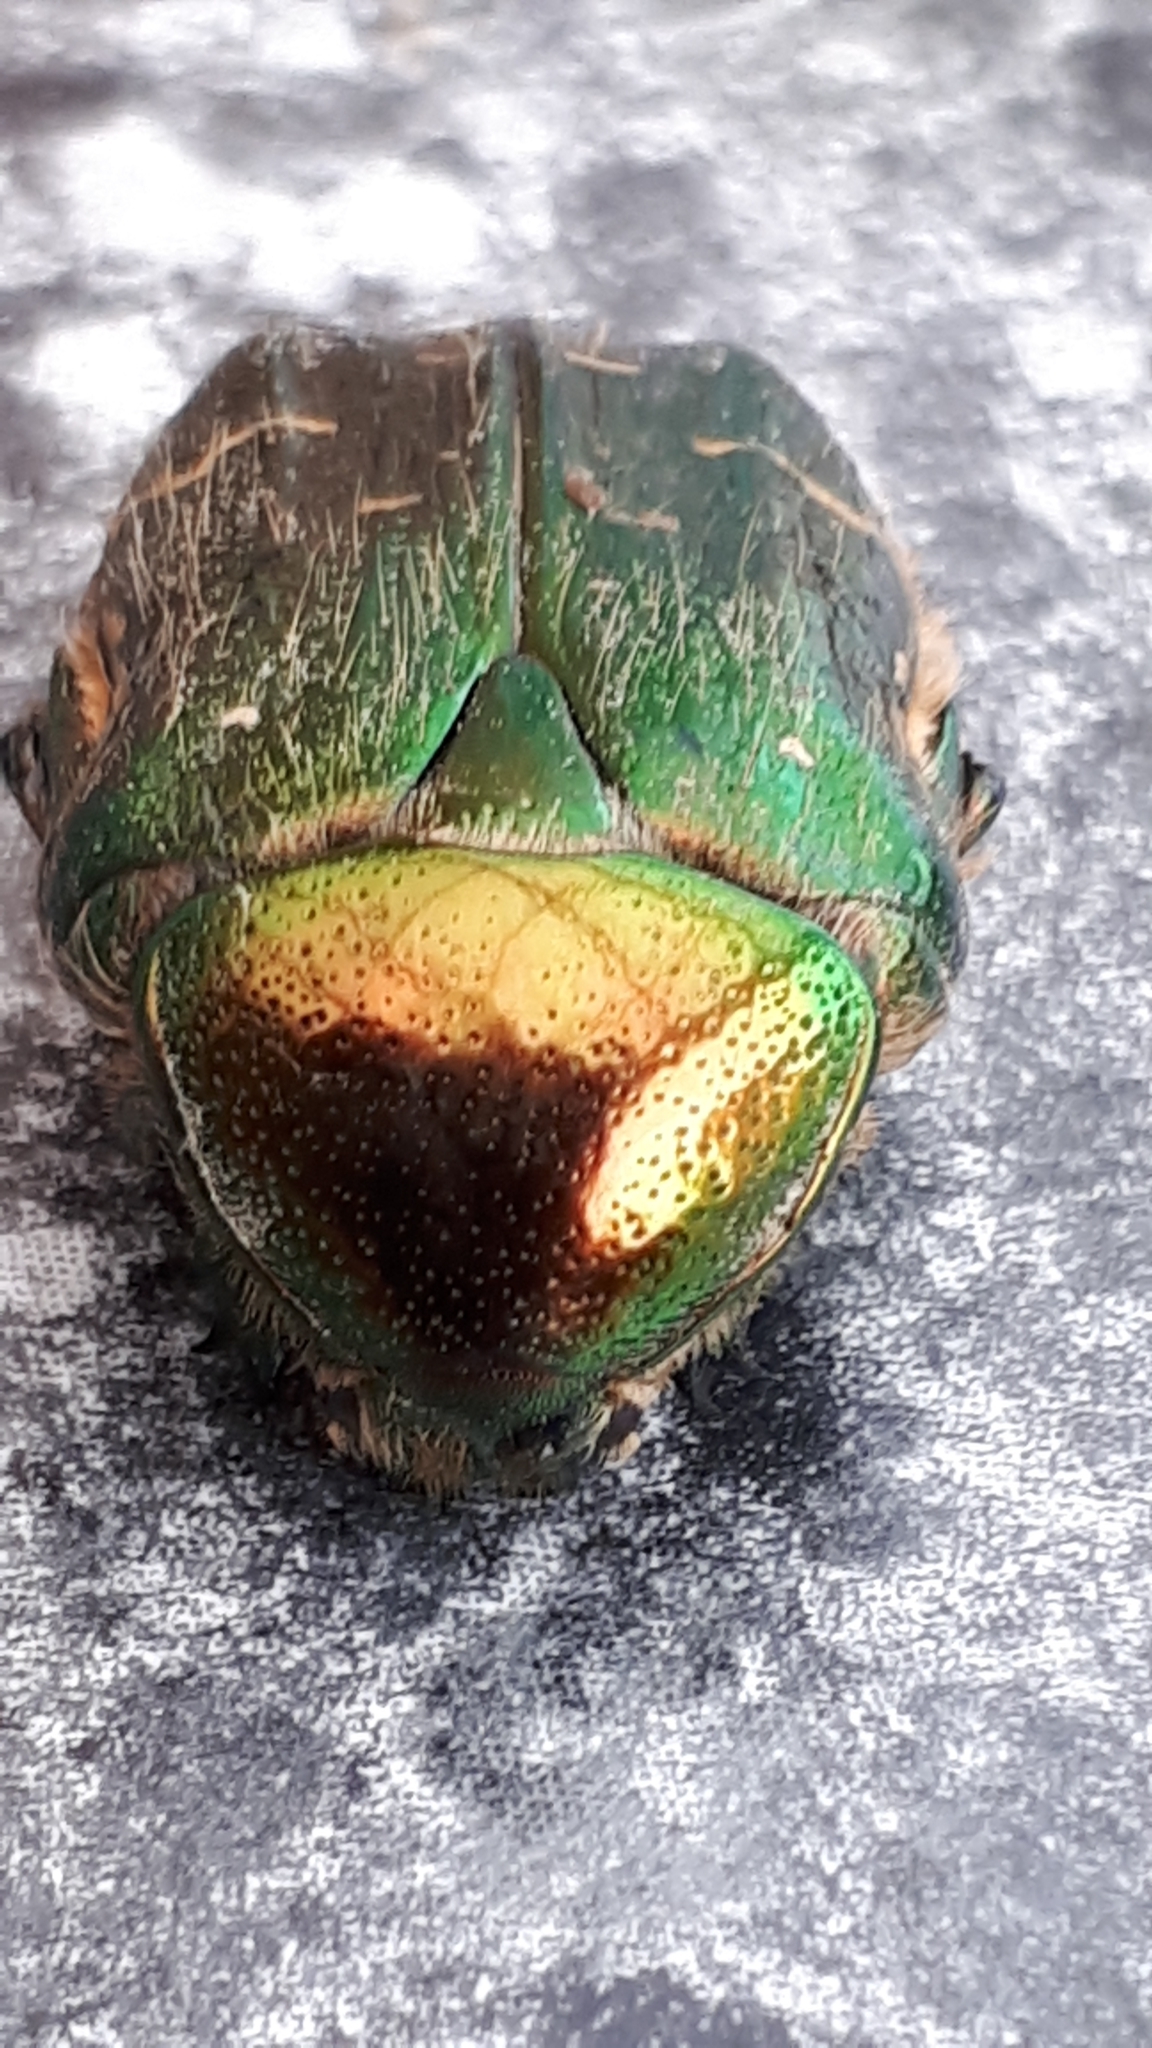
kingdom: Animalia
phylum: Arthropoda
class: Insecta
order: Coleoptera
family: Scarabaeidae
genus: Cetonia
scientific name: Cetonia aurata
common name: Rose chafer
